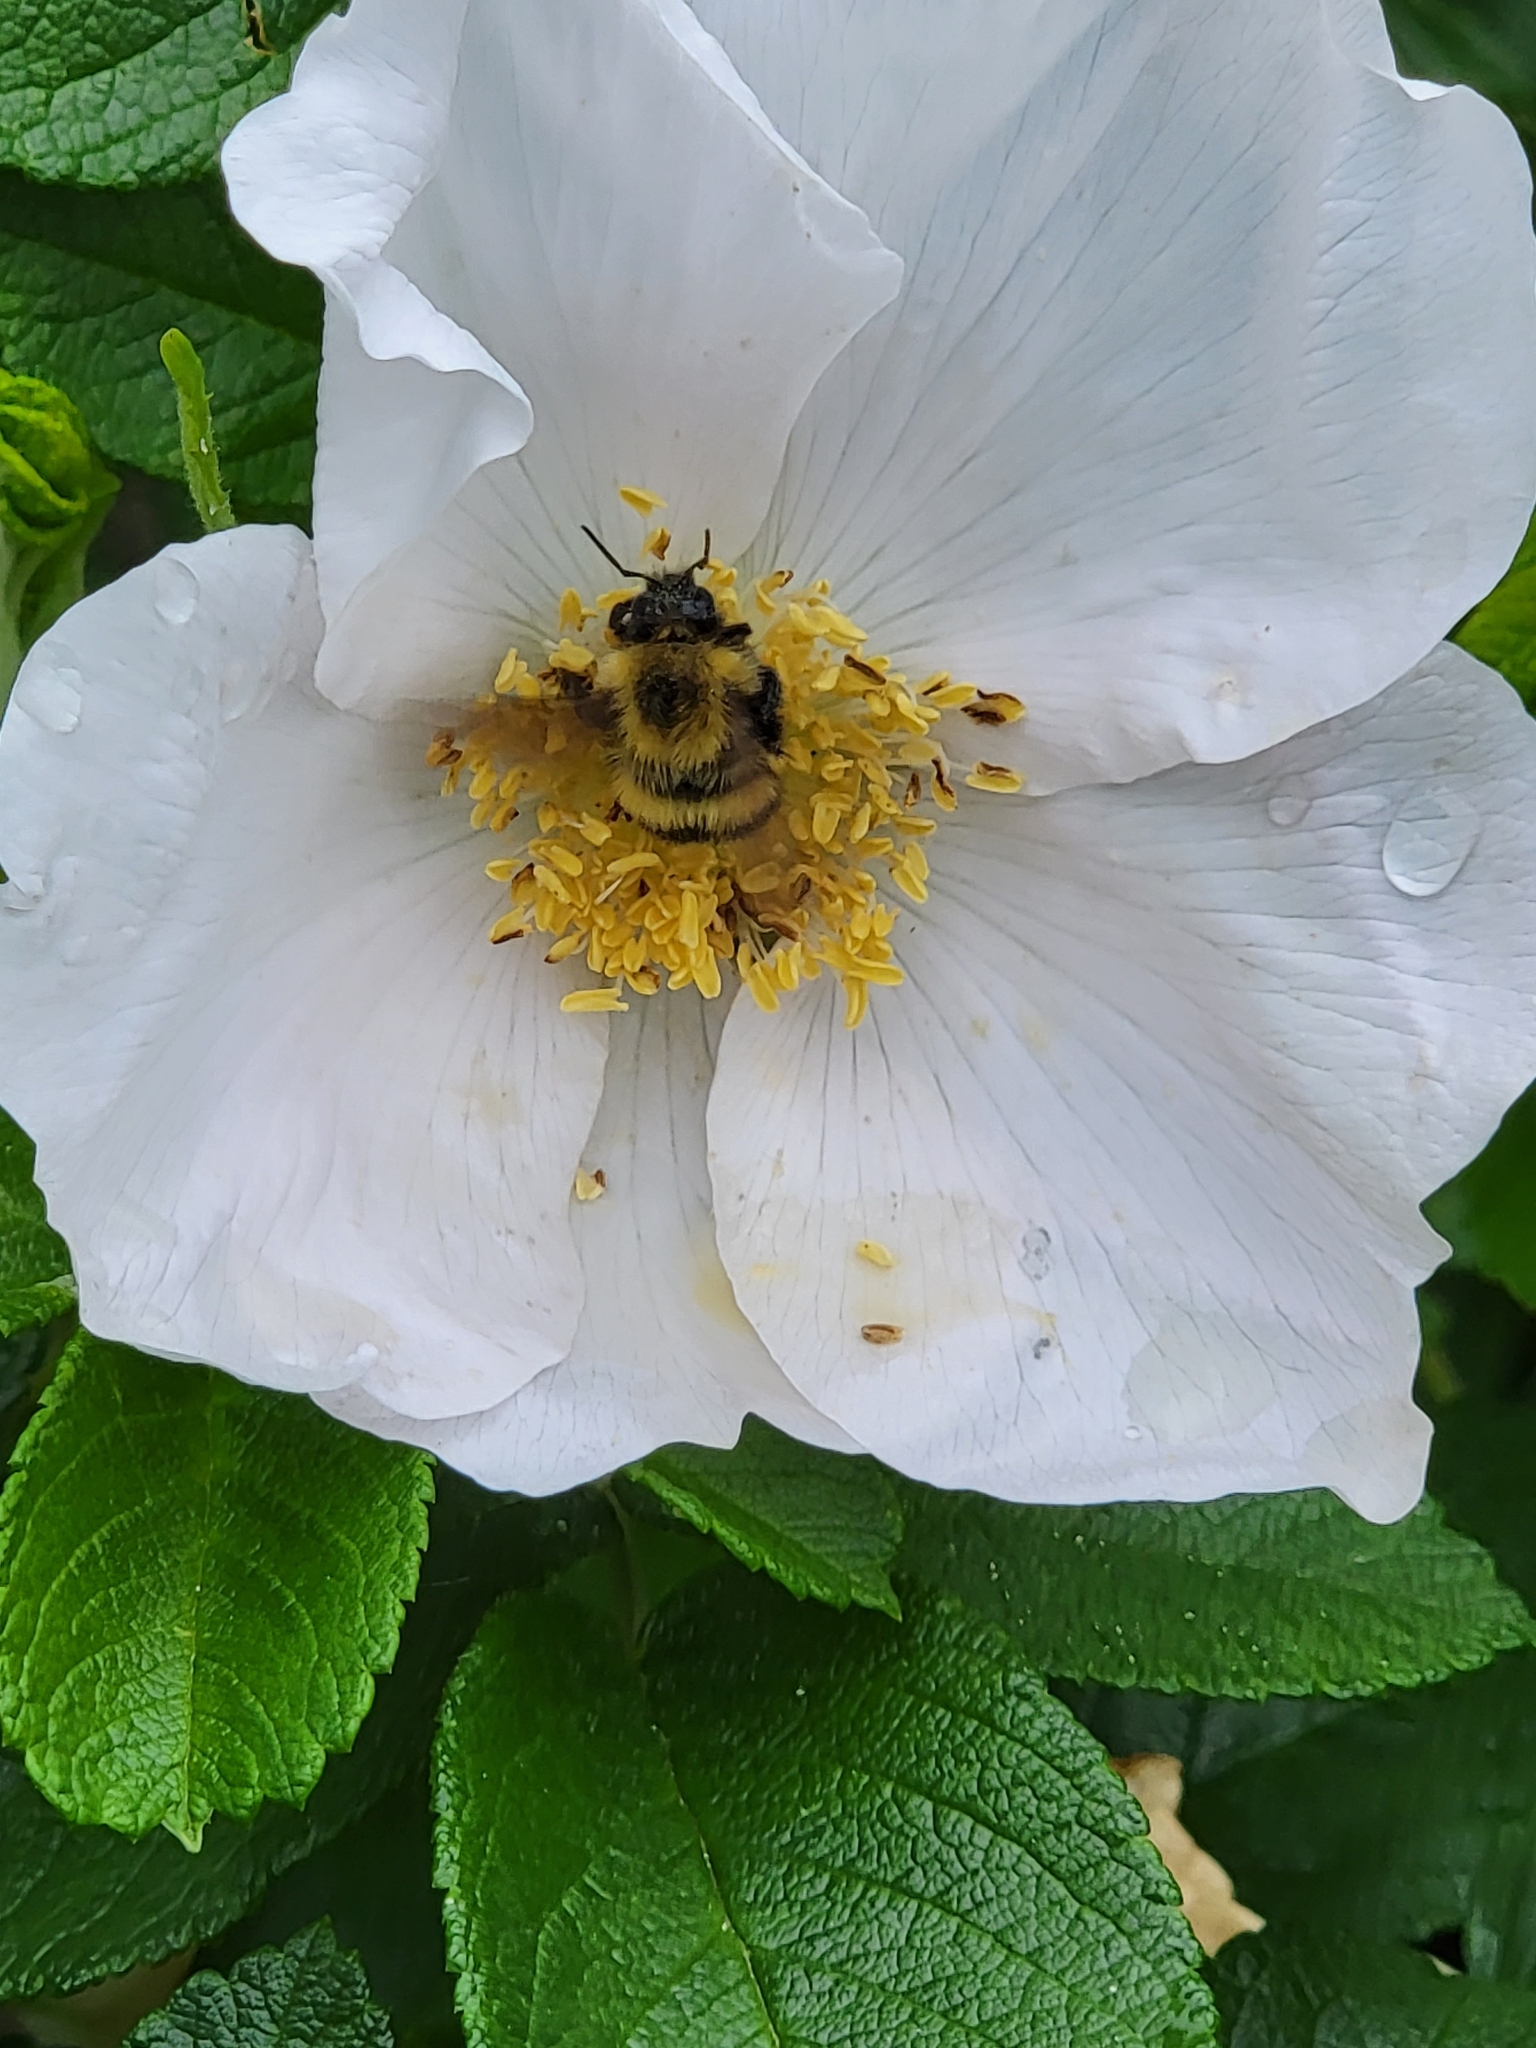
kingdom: Animalia
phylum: Arthropoda
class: Insecta
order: Hymenoptera
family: Apidae
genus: Bombus
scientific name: Bombus perplexus
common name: Confusing bumble bee
